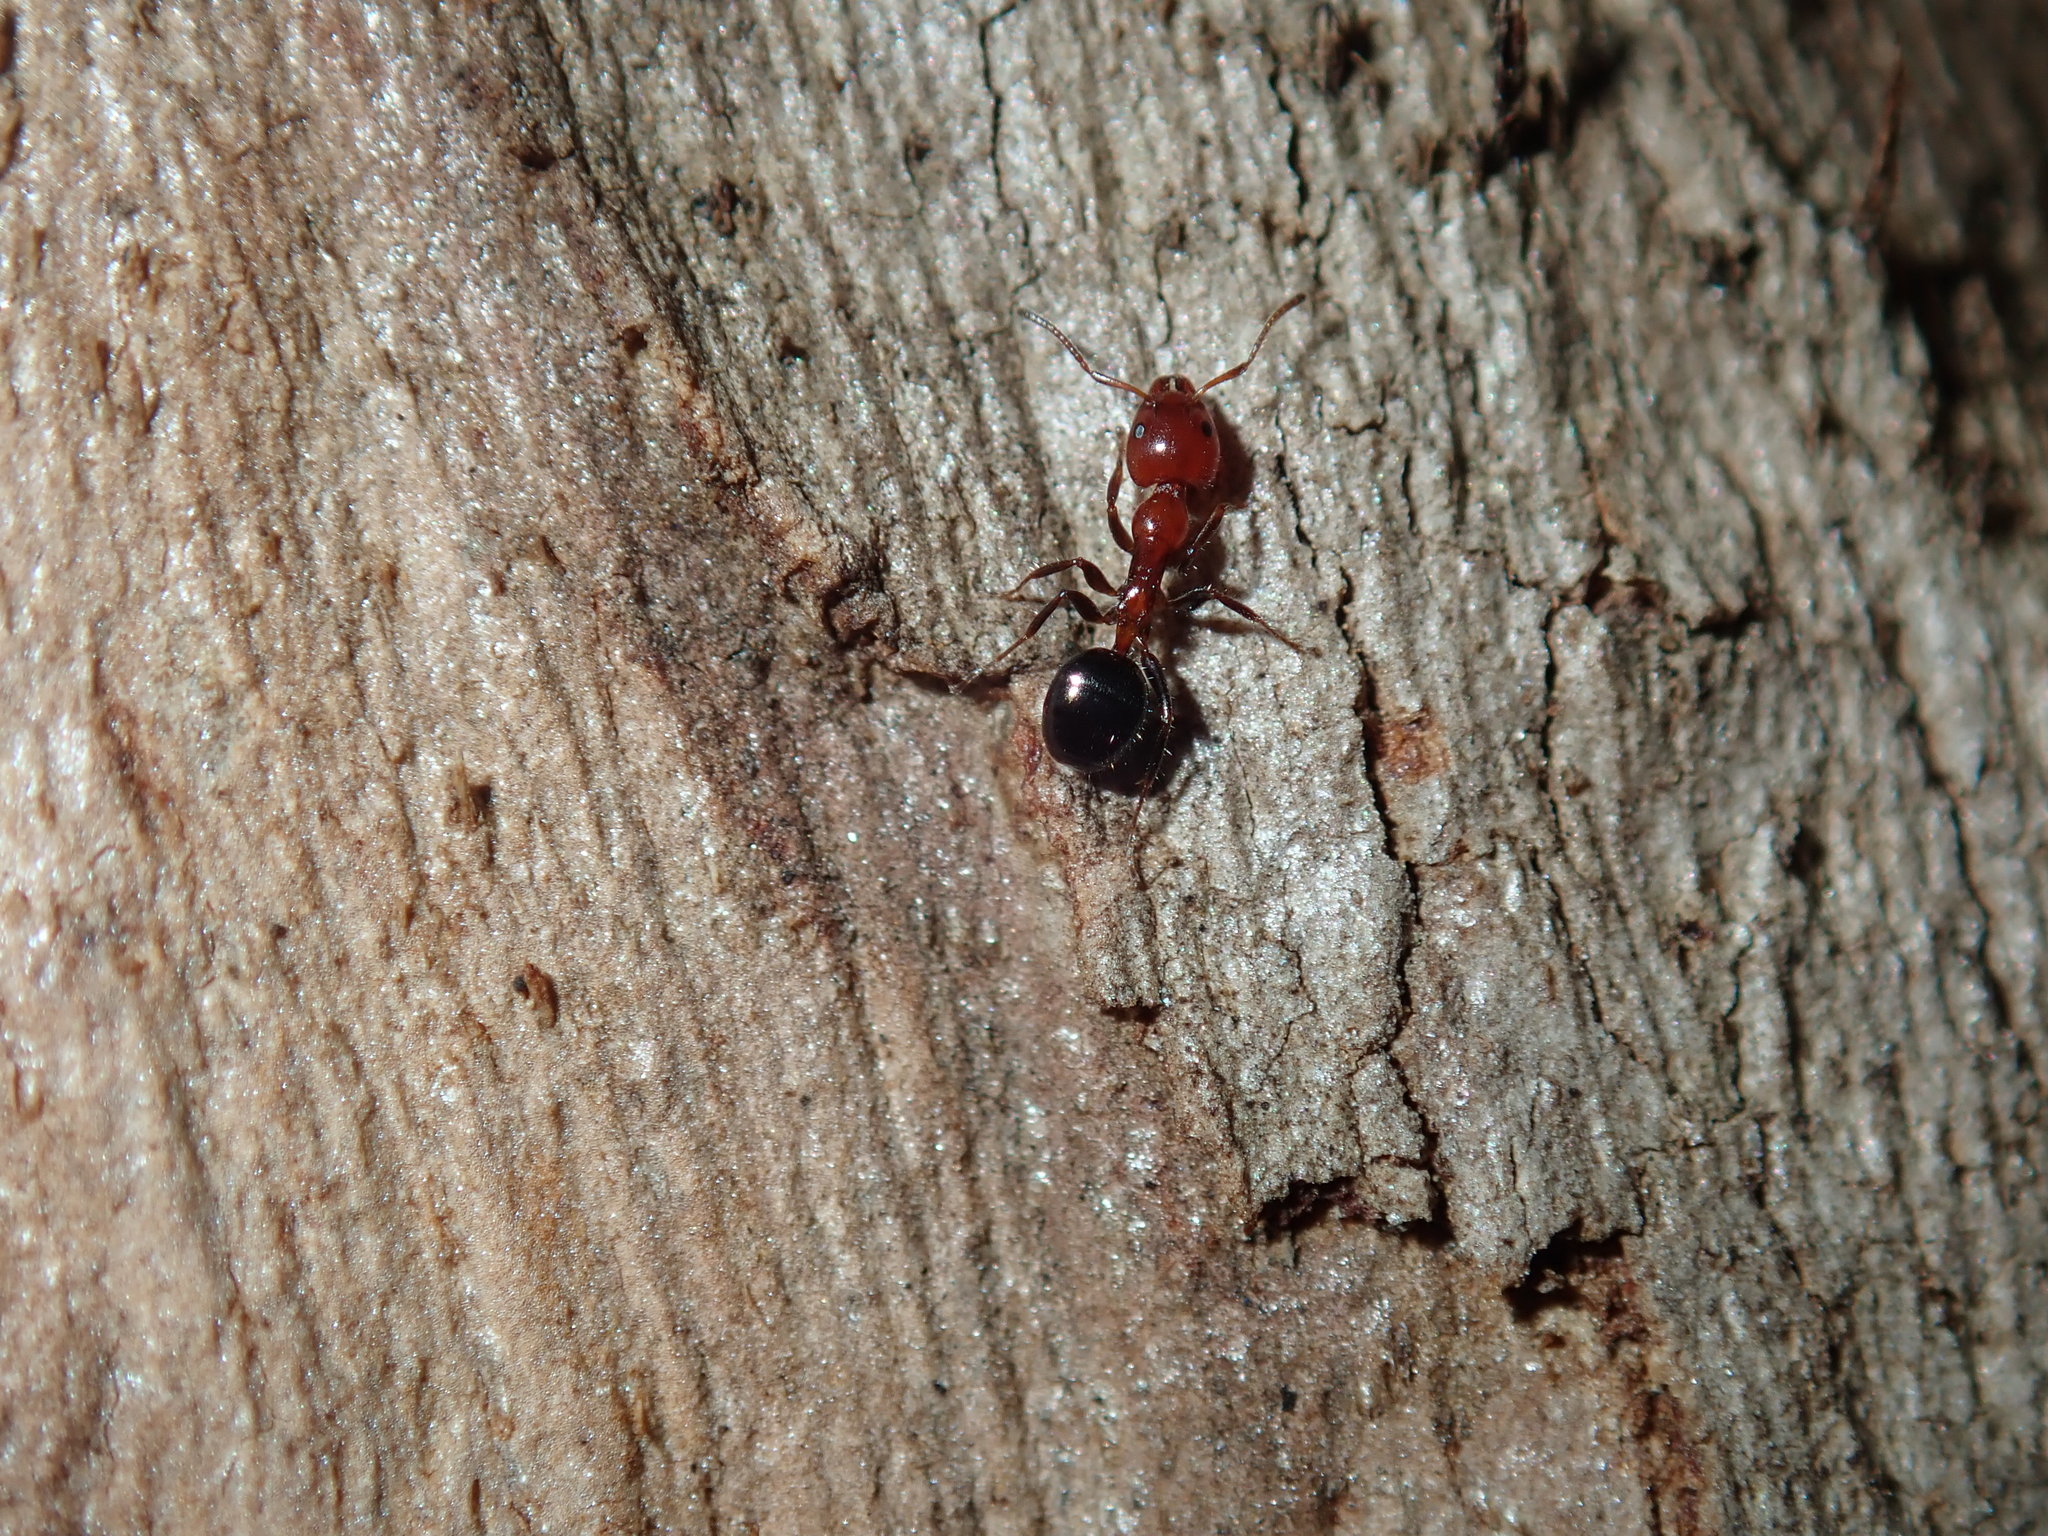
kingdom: Animalia
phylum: Arthropoda
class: Insecta
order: Hymenoptera
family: Formicidae
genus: Froggattella
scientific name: Froggattella kirbii
